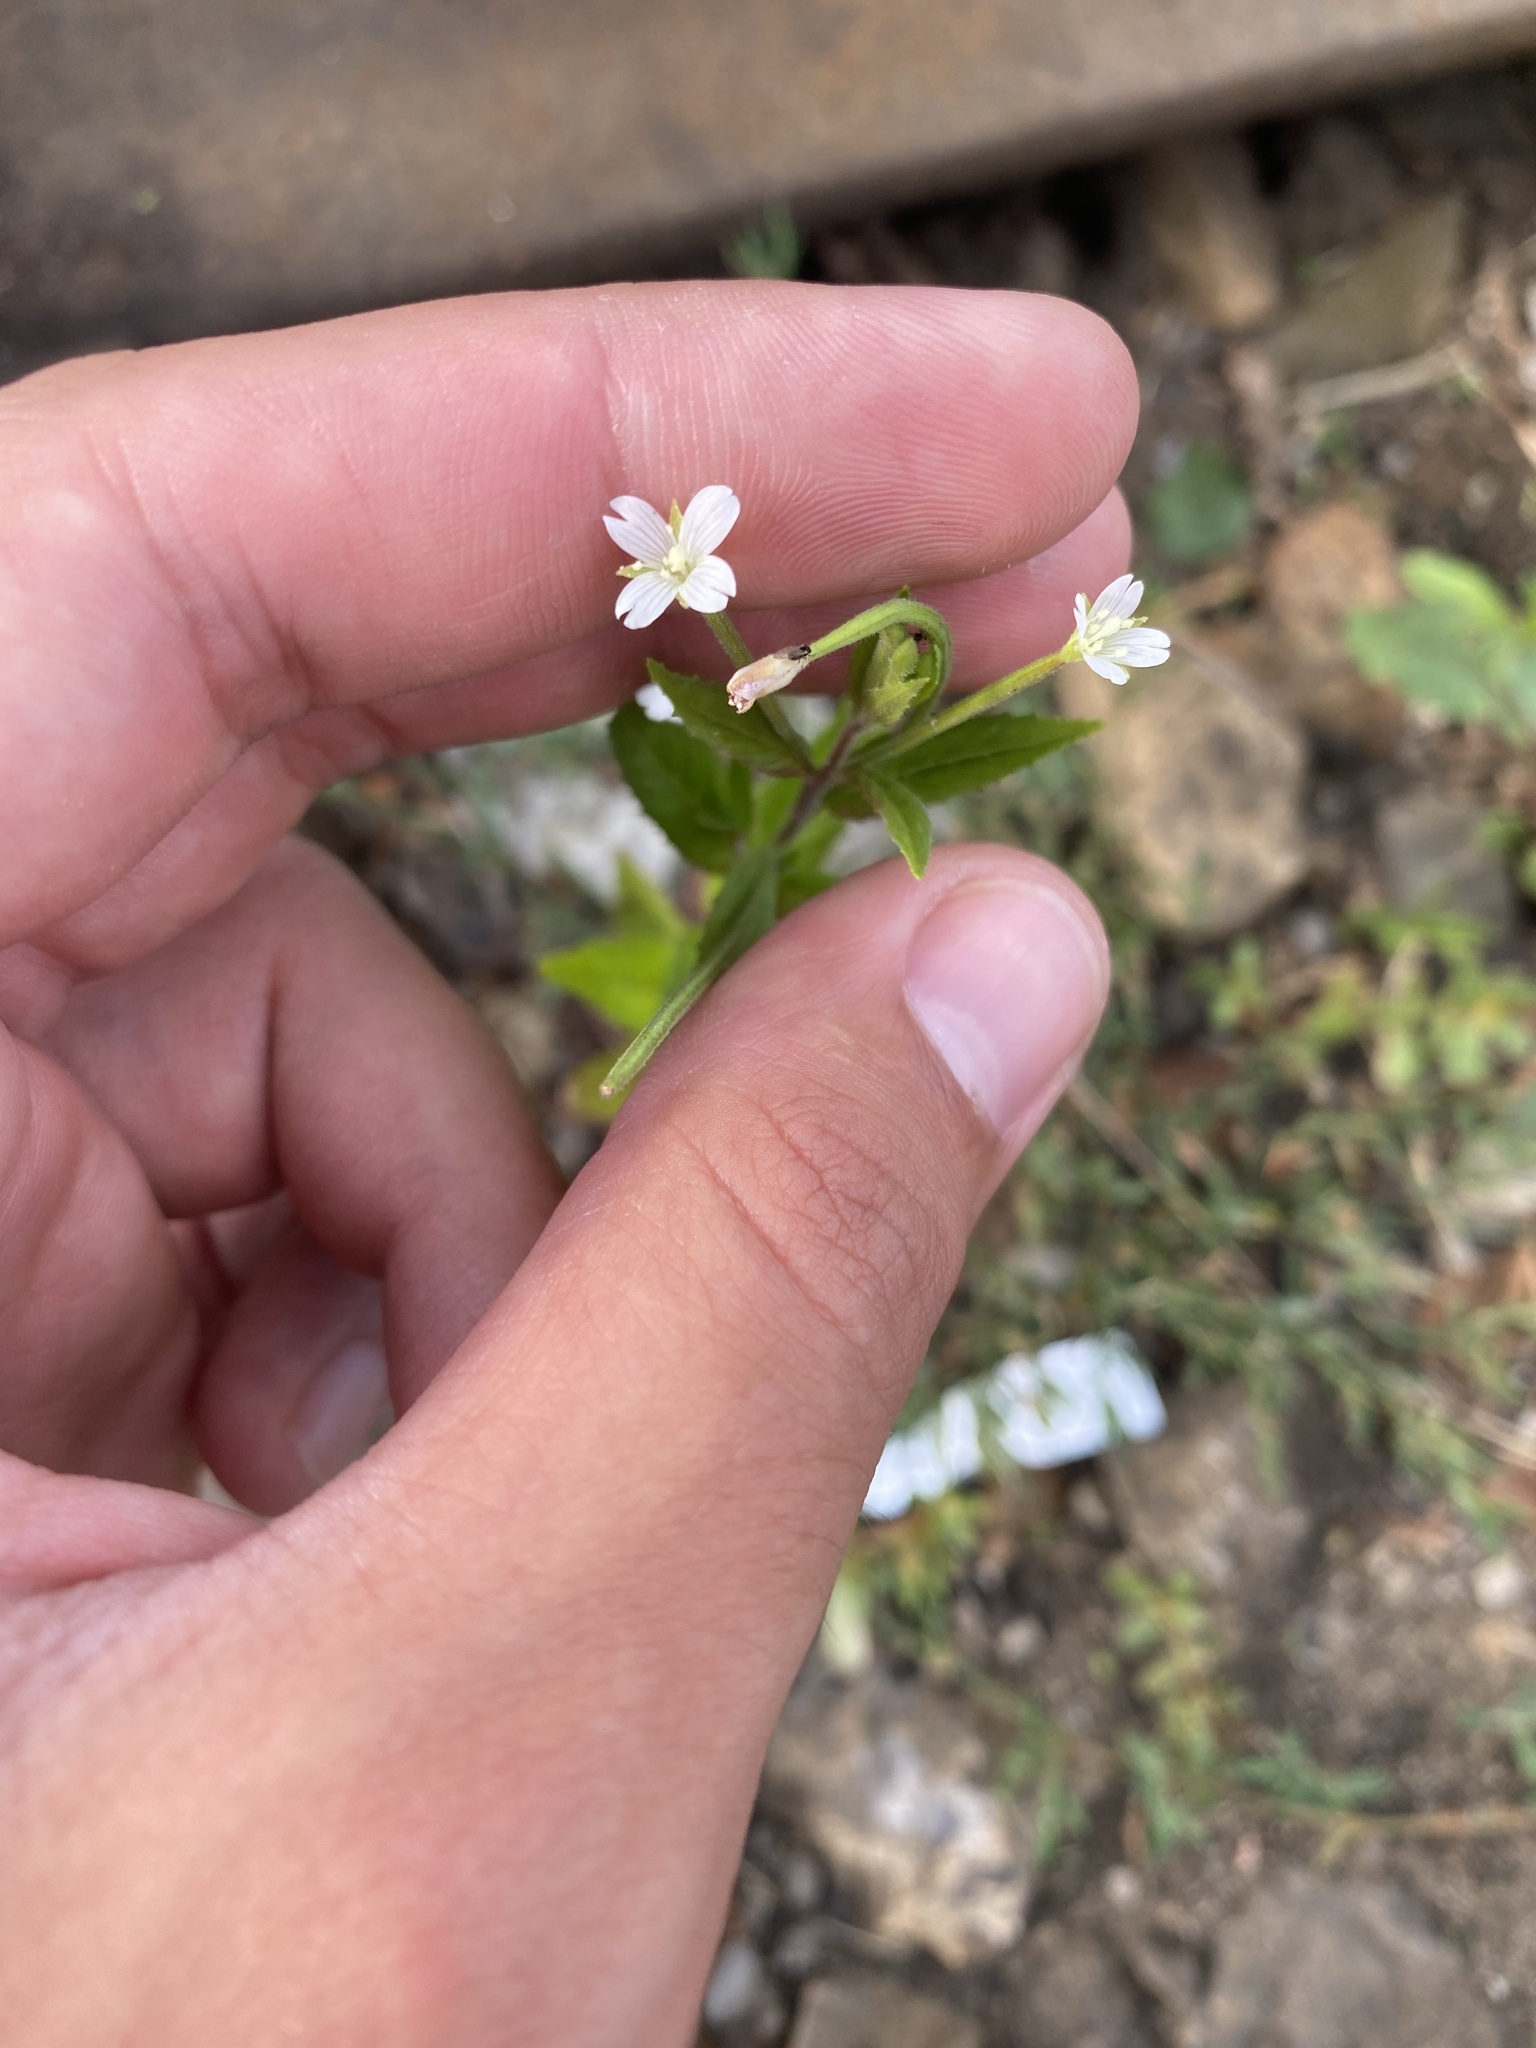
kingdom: Plantae
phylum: Tracheophyta
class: Magnoliopsida
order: Myrtales
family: Onagraceae
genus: Epilobium
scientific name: Epilobium pseudorubescens
